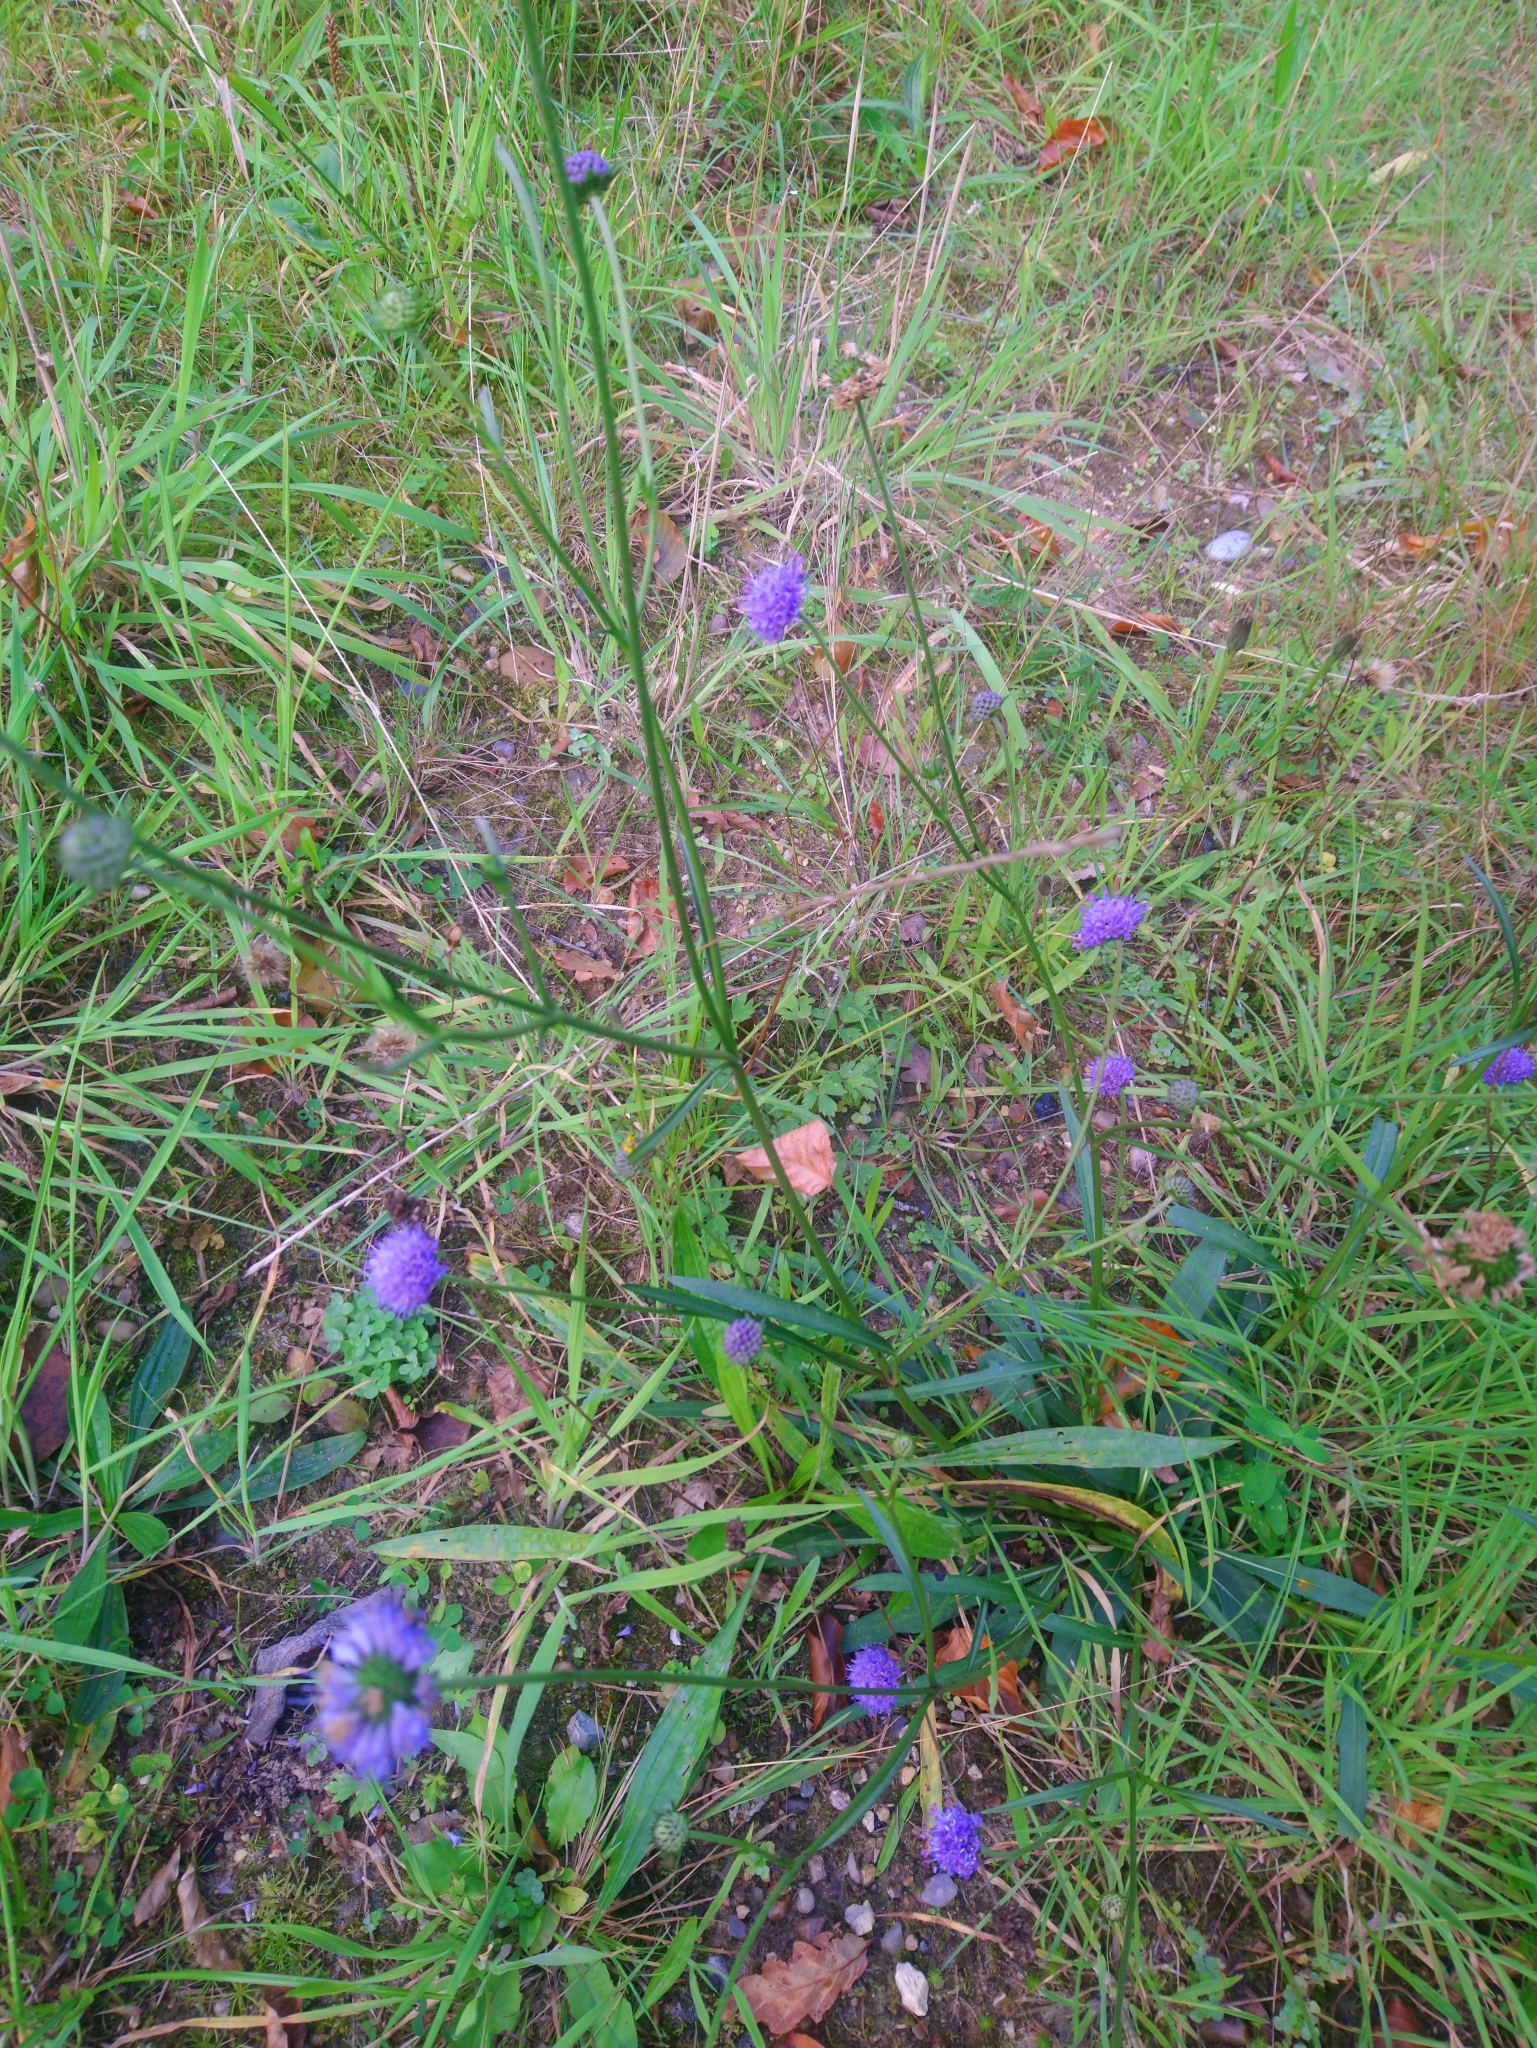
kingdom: Plantae
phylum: Tracheophyta
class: Magnoliopsida
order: Dipsacales
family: Caprifoliaceae
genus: Succisa
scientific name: Succisa pratensis
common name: Devil's-bit
